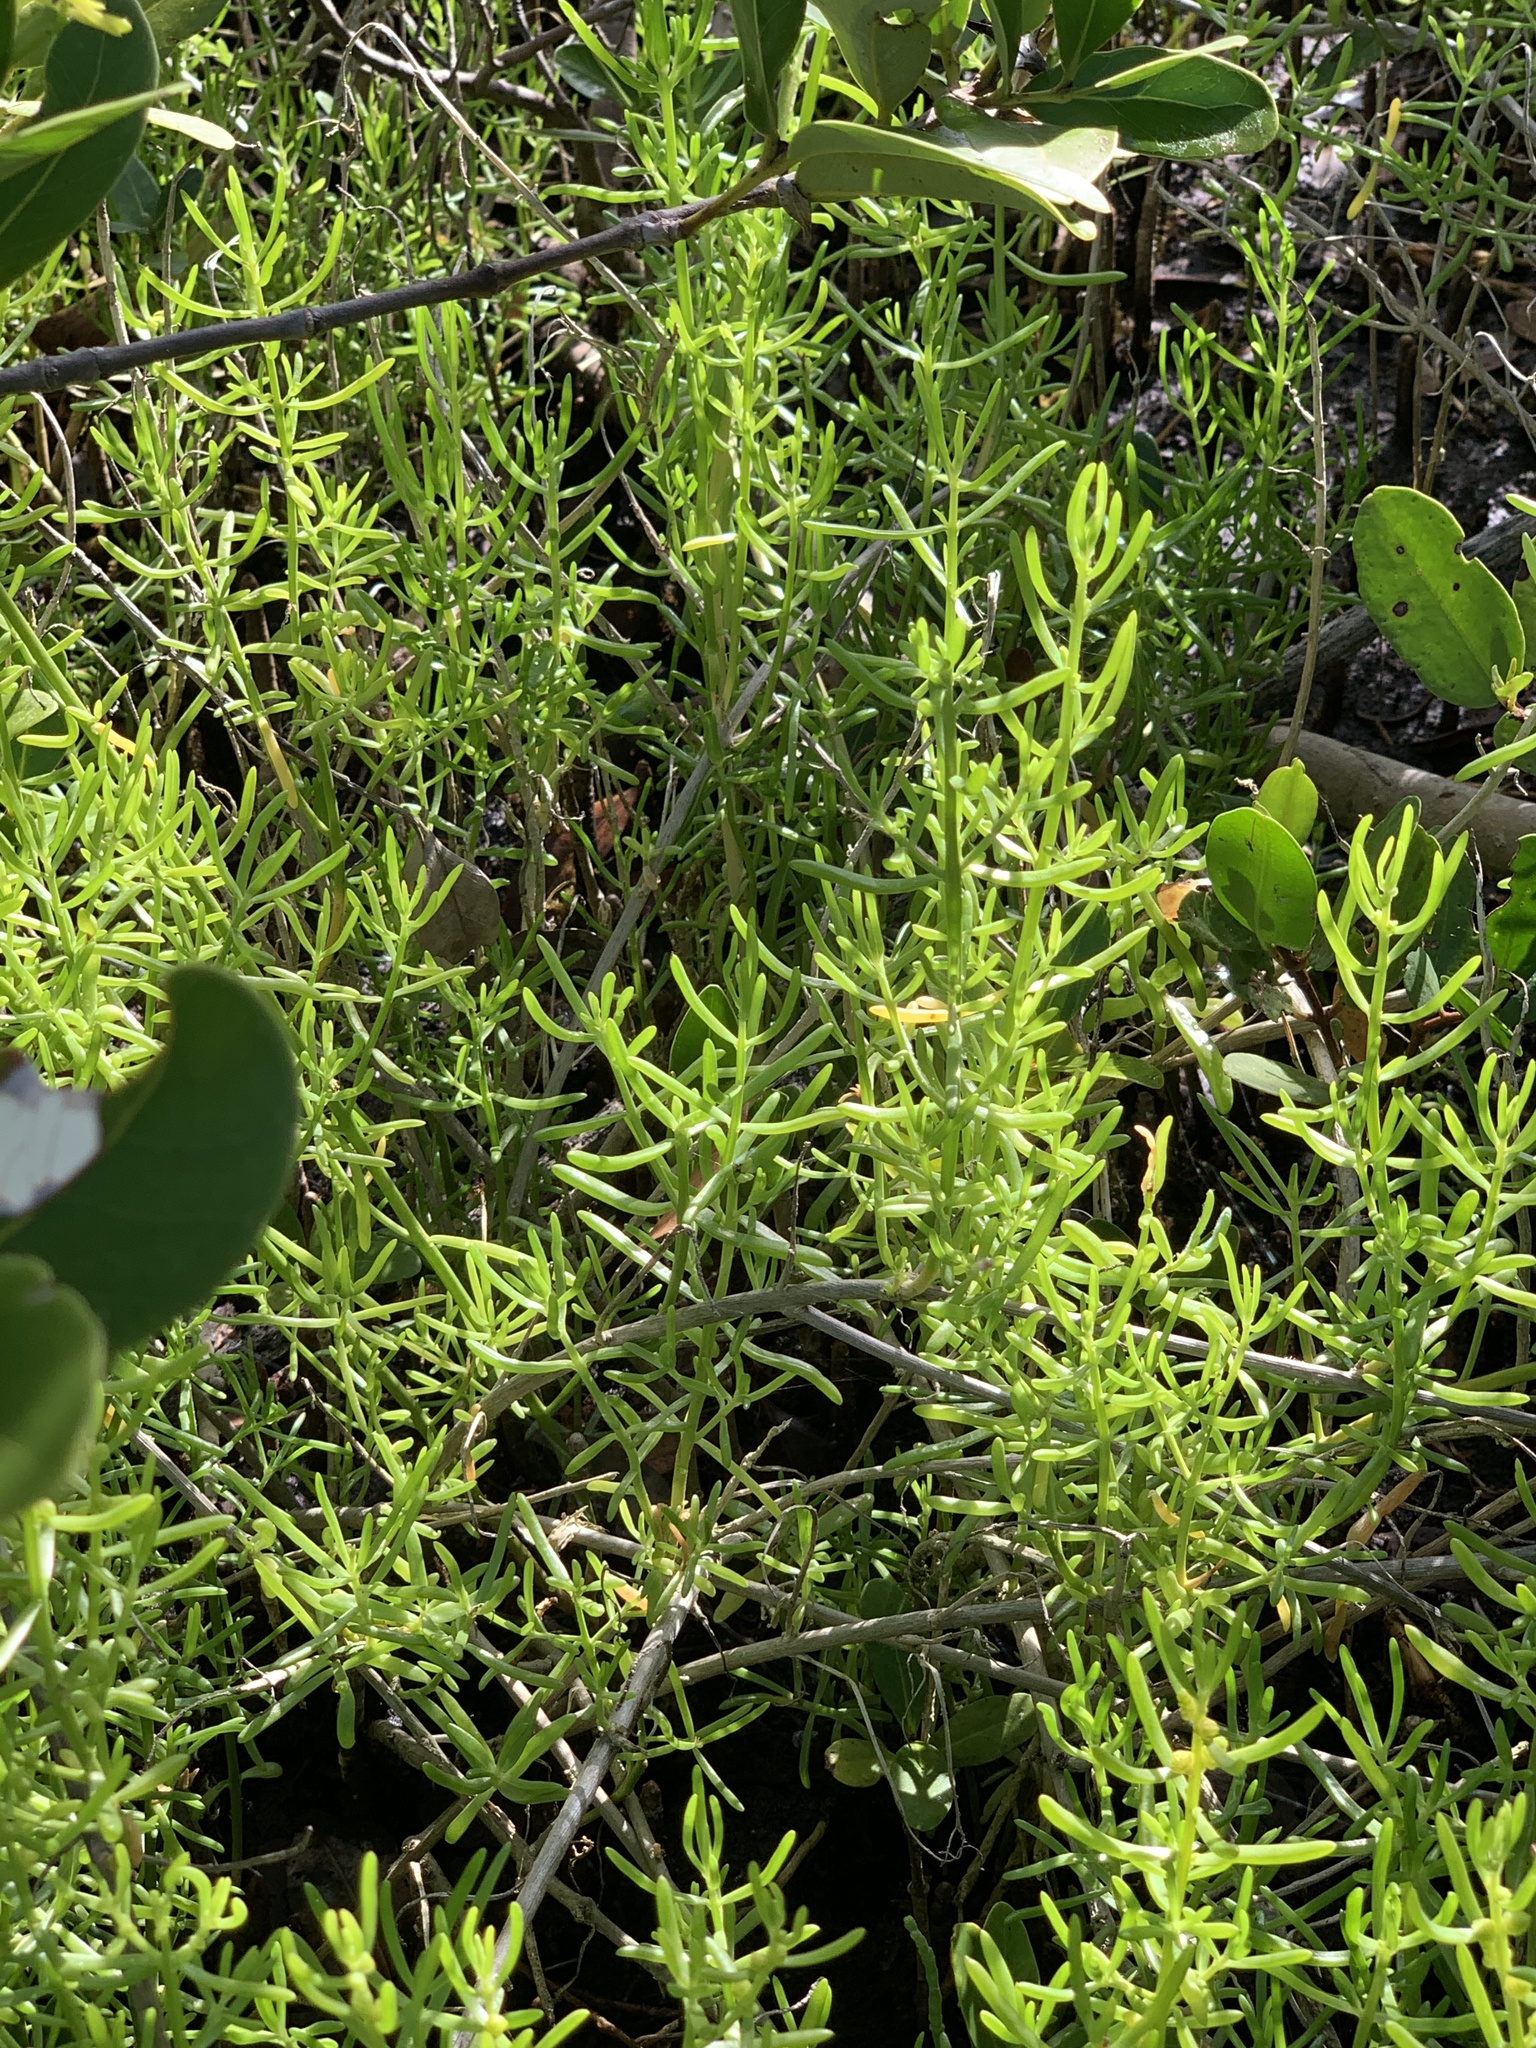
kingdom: Plantae
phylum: Tracheophyta
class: Magnoliopsida
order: Brassicales
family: Bataceae
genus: Batis
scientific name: Batis maritima
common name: Turtleweed
